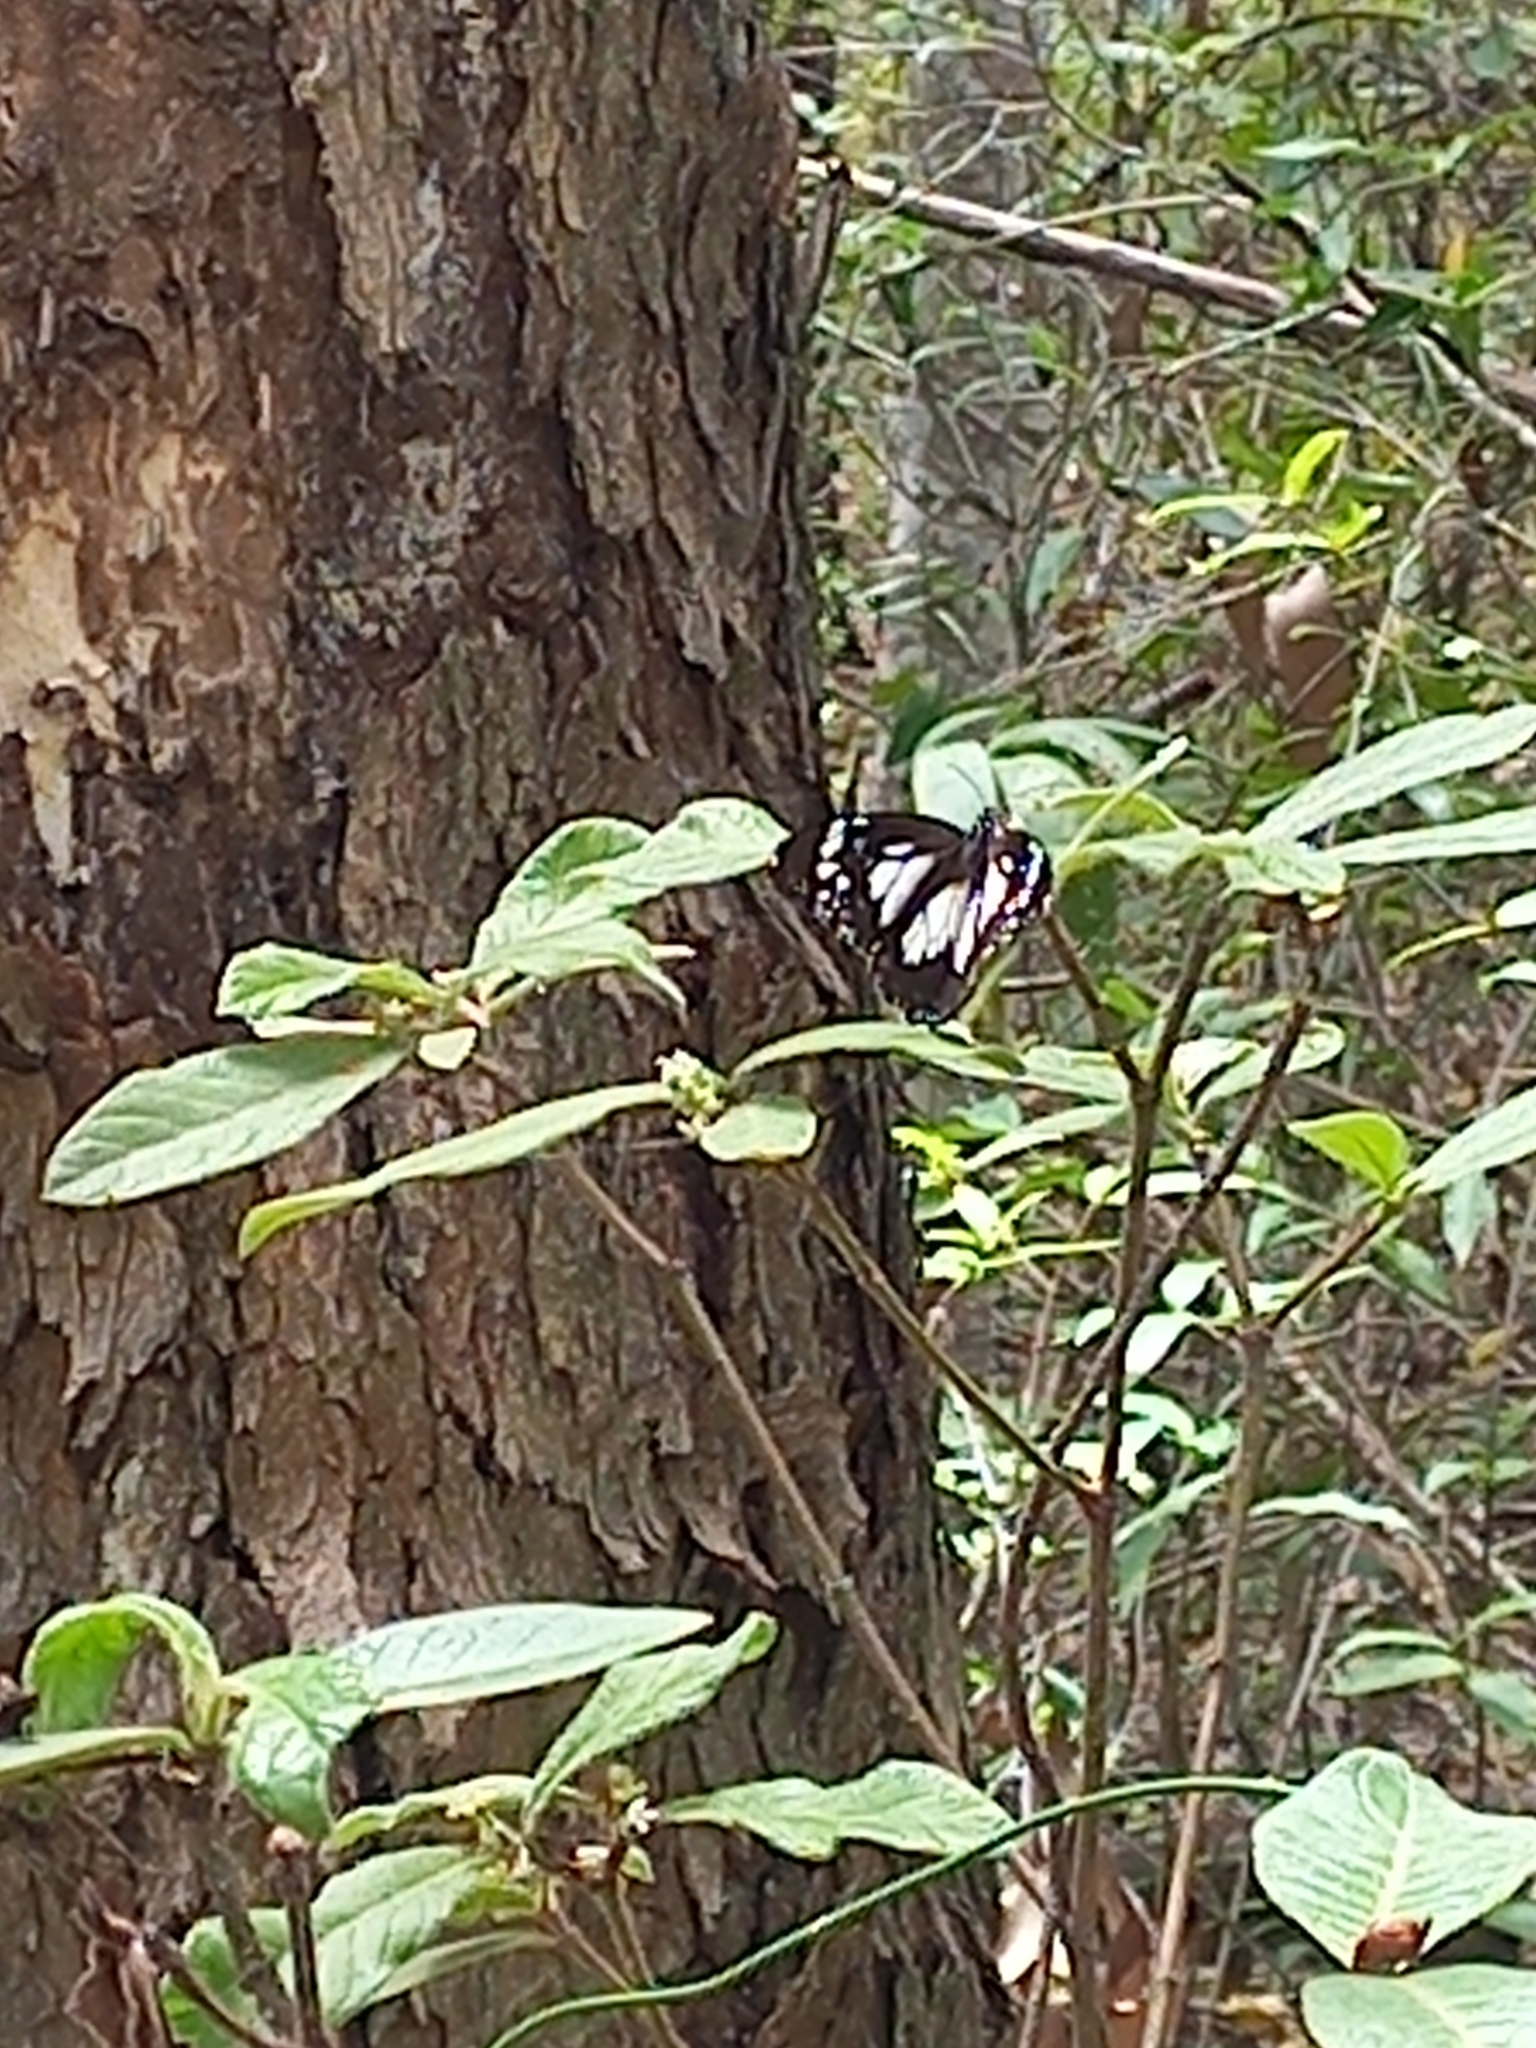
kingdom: Animalia
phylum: Arthropoda
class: Insecta
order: Lepidoptera
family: Nymphalidae
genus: Danaus
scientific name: Danaus affinis
